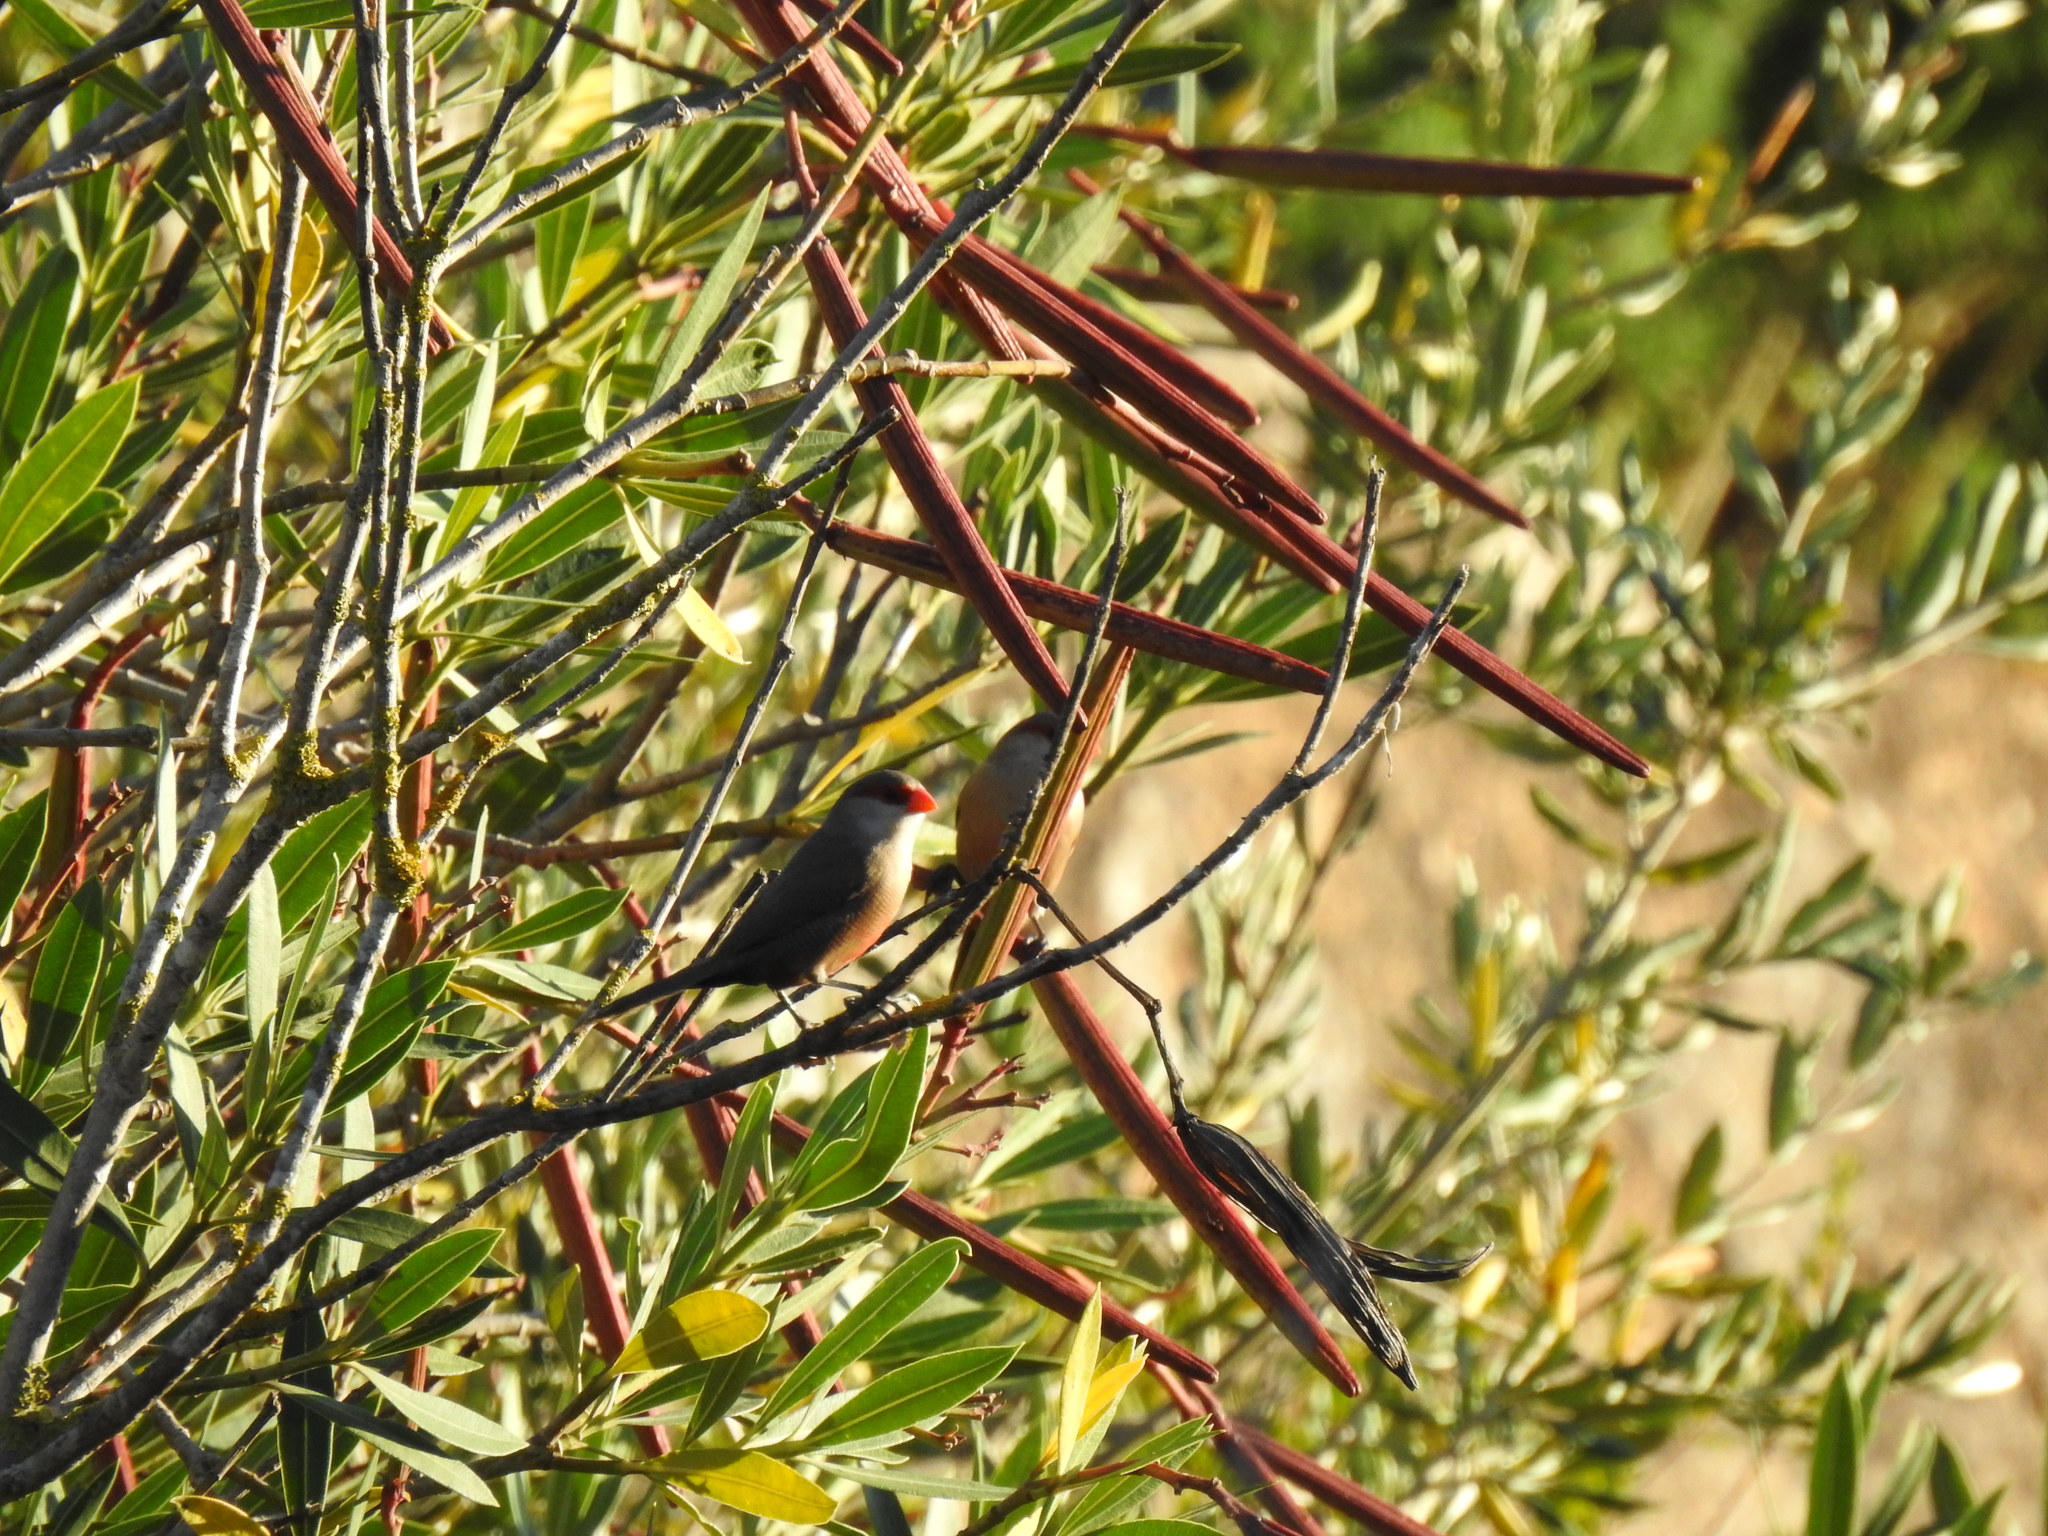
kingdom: Animalia
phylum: Chordata
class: Aves
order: Passeriformes
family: Estrildidae
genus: Estrilda
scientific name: Estrilda astrild
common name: Common waxbill
